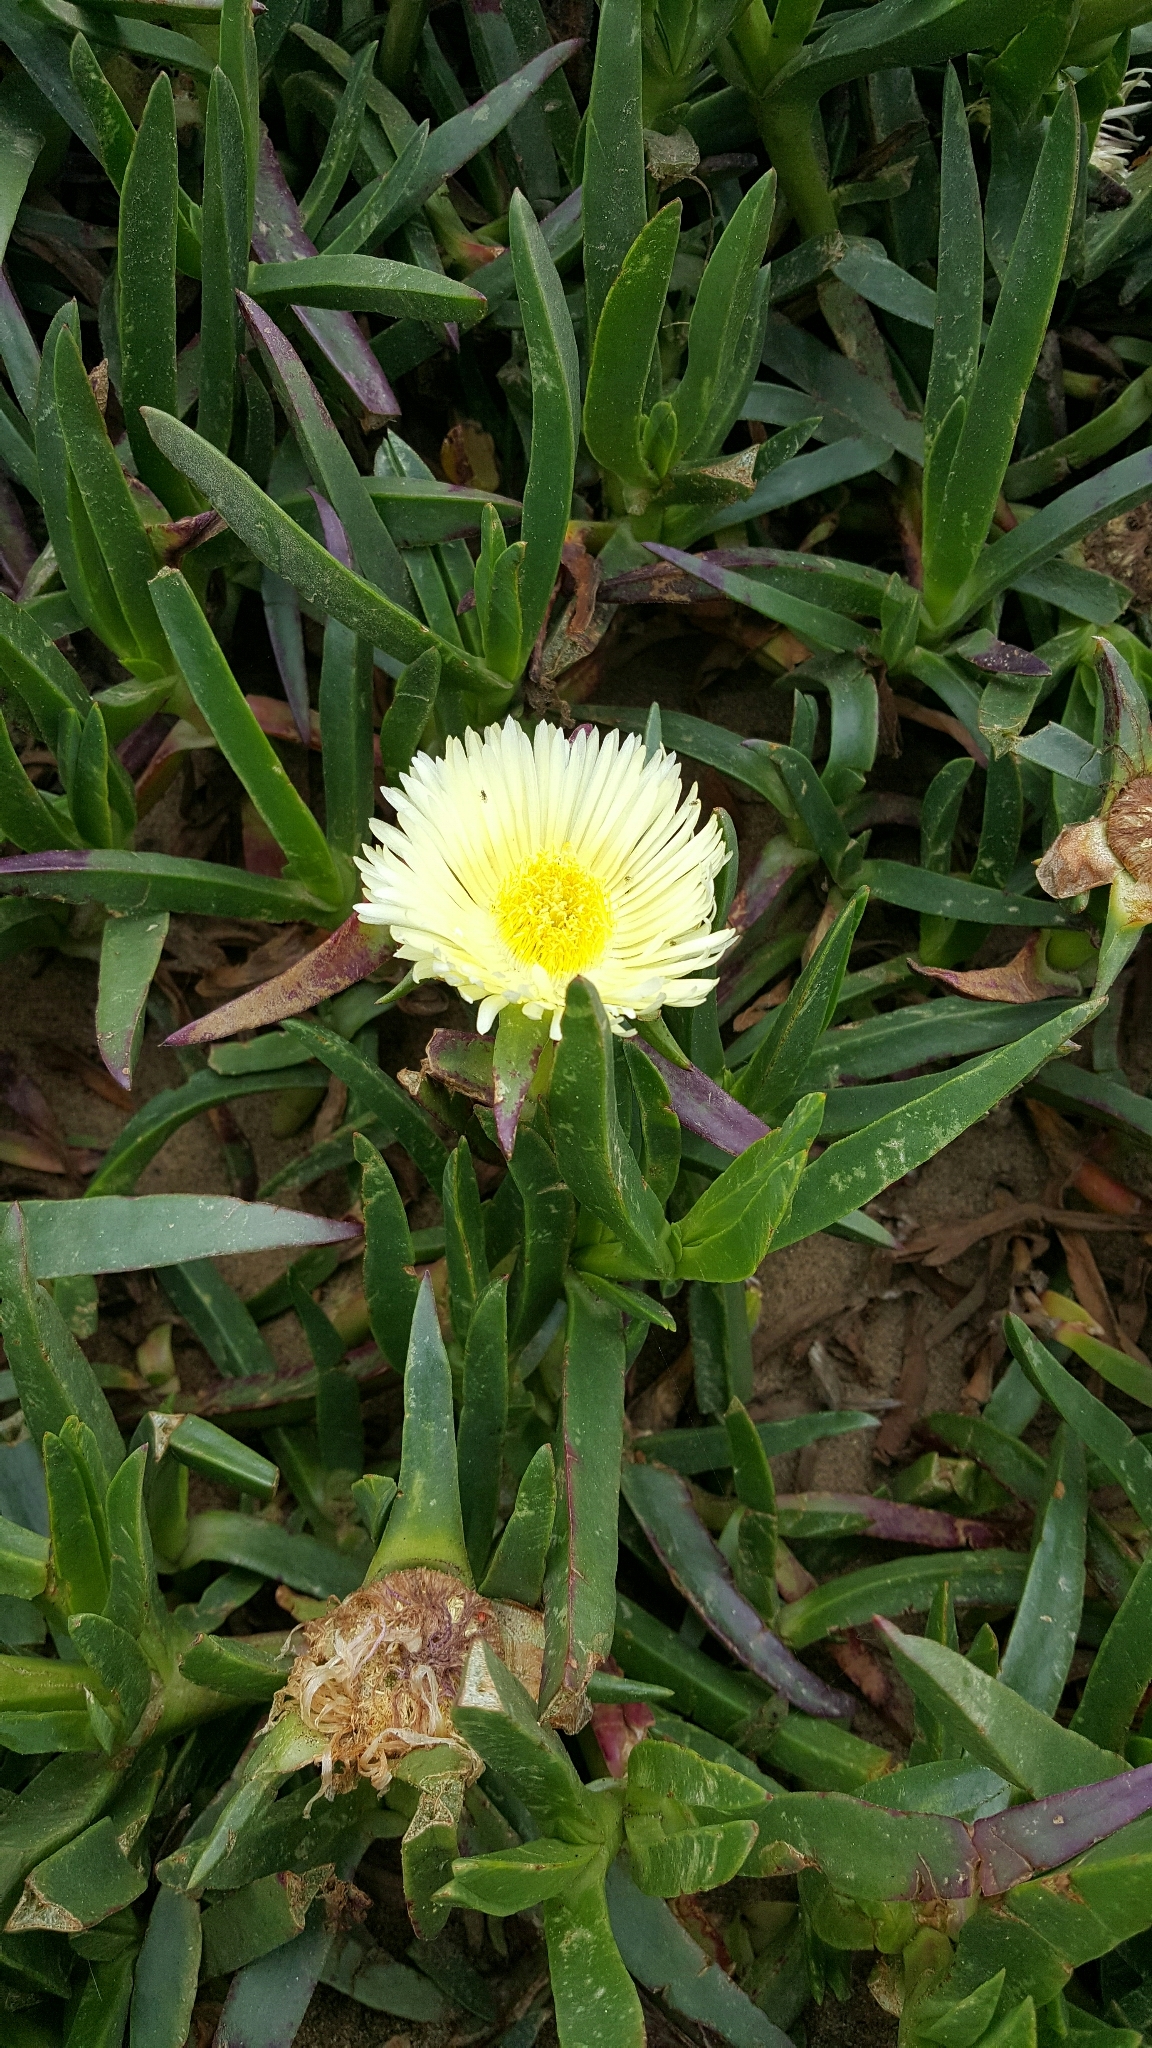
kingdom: Plantae
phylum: Tracheophyta
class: Magnoliopsida
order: Caryophyllales
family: Aizoaceae
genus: Carpobrotus
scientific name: Carpobrotus edulis
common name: Hottentot-fig
